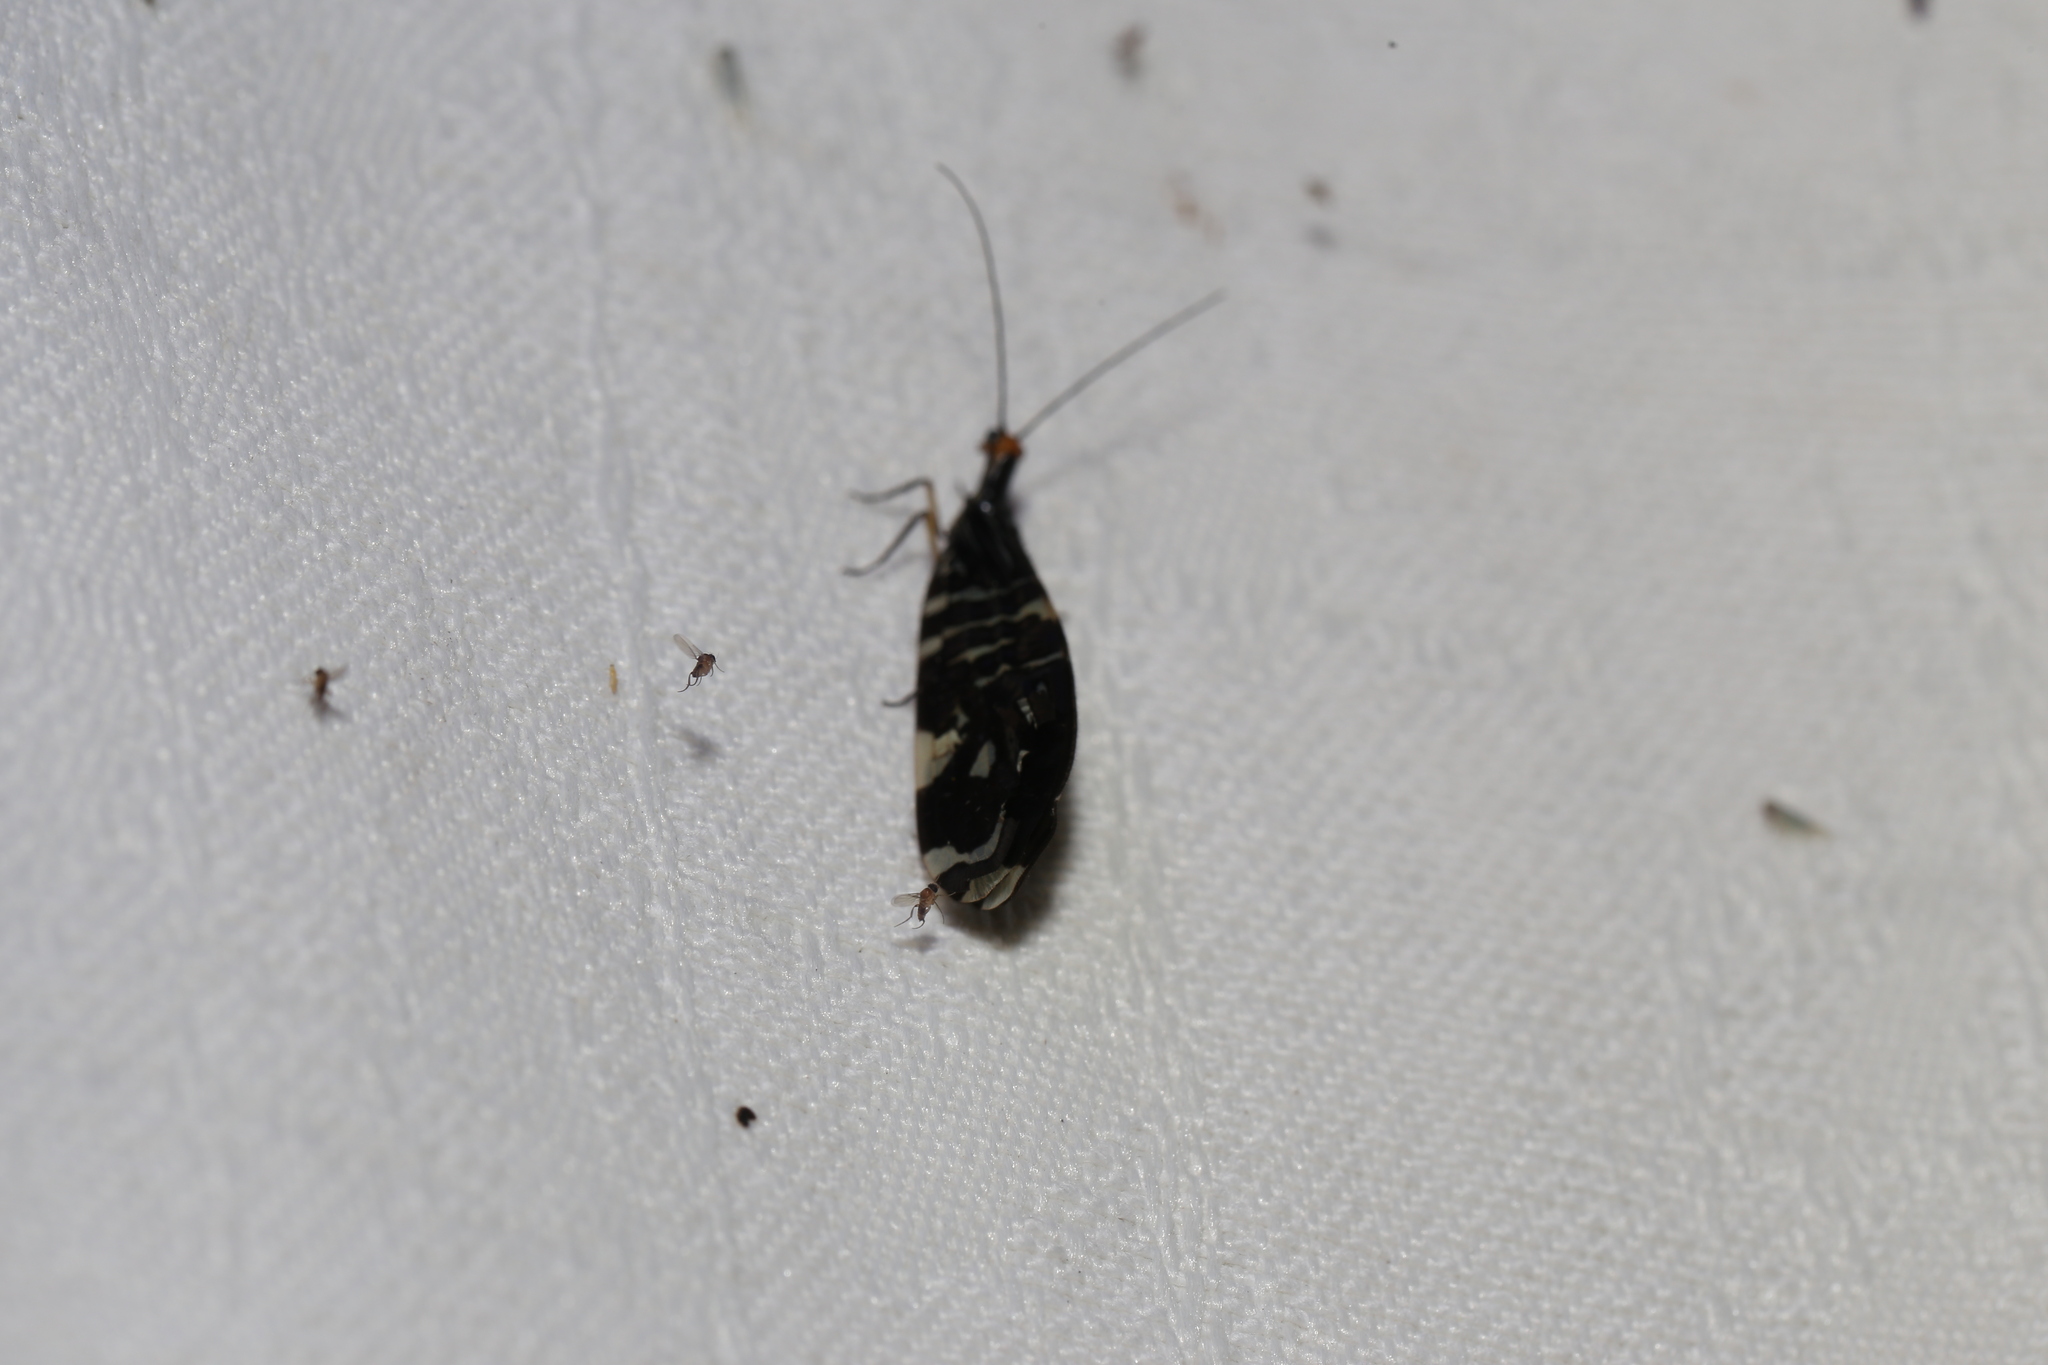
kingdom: Animalia
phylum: Arthropoda
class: Insecta
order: Neuroptera
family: Osmylidae
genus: Porismus
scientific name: Porismus strigatus
